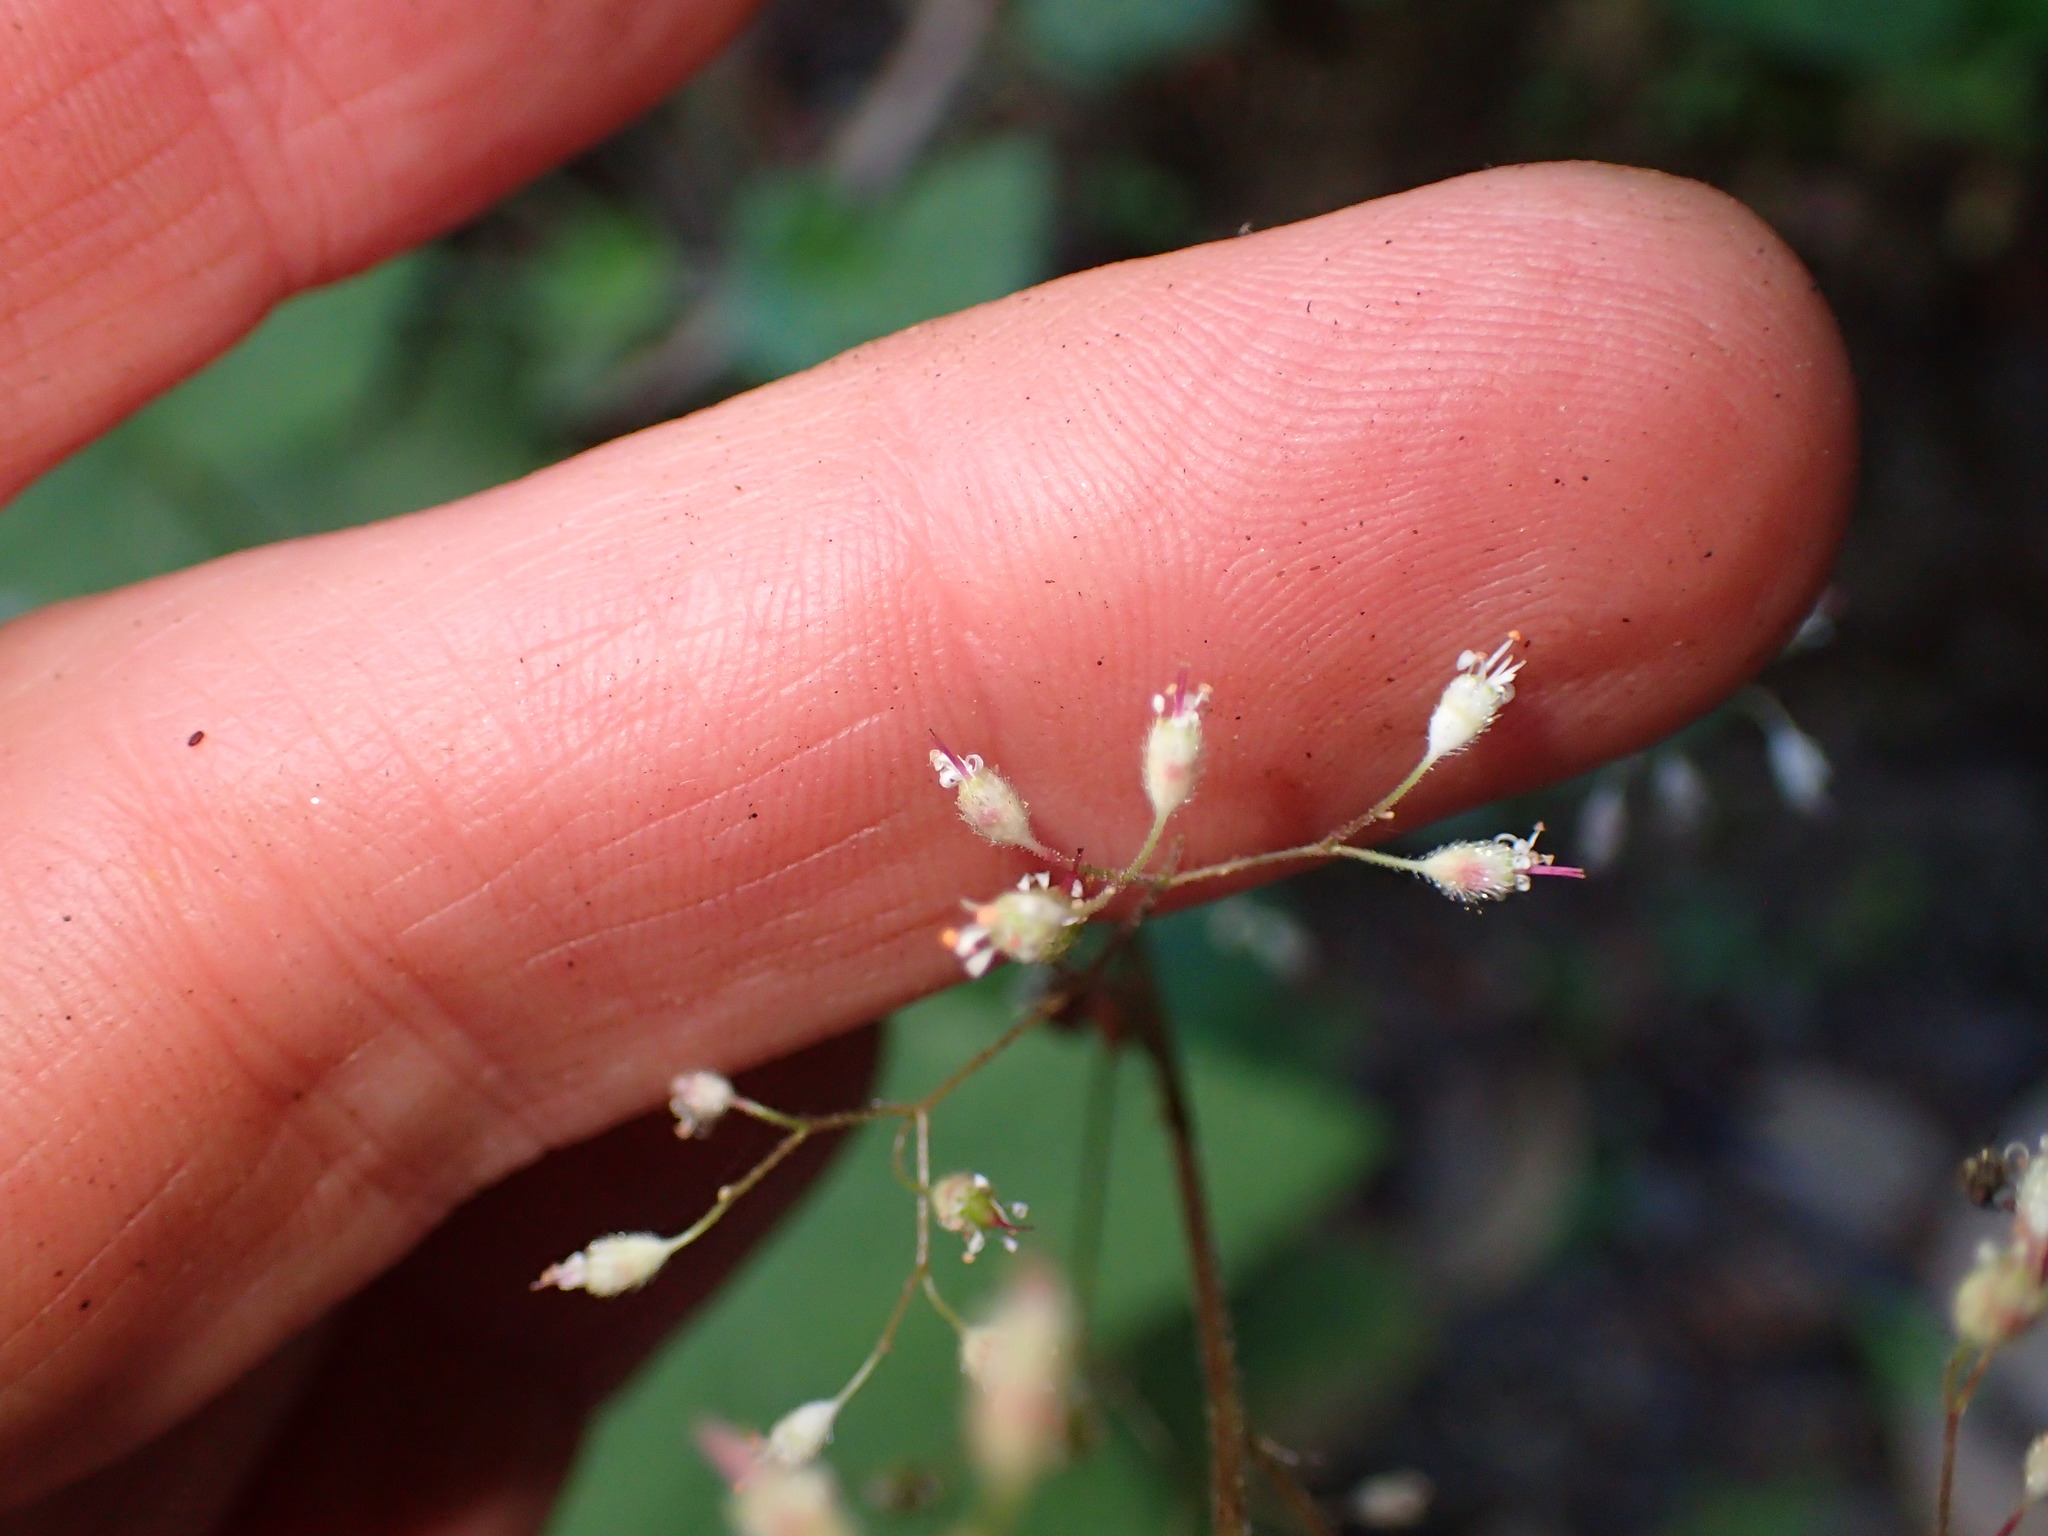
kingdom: Plantae
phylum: Tracheophyta
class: Magnoliopsida
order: Saxifragales
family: Saxifragaceae
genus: Heuchera
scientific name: Heuchera micrantha
